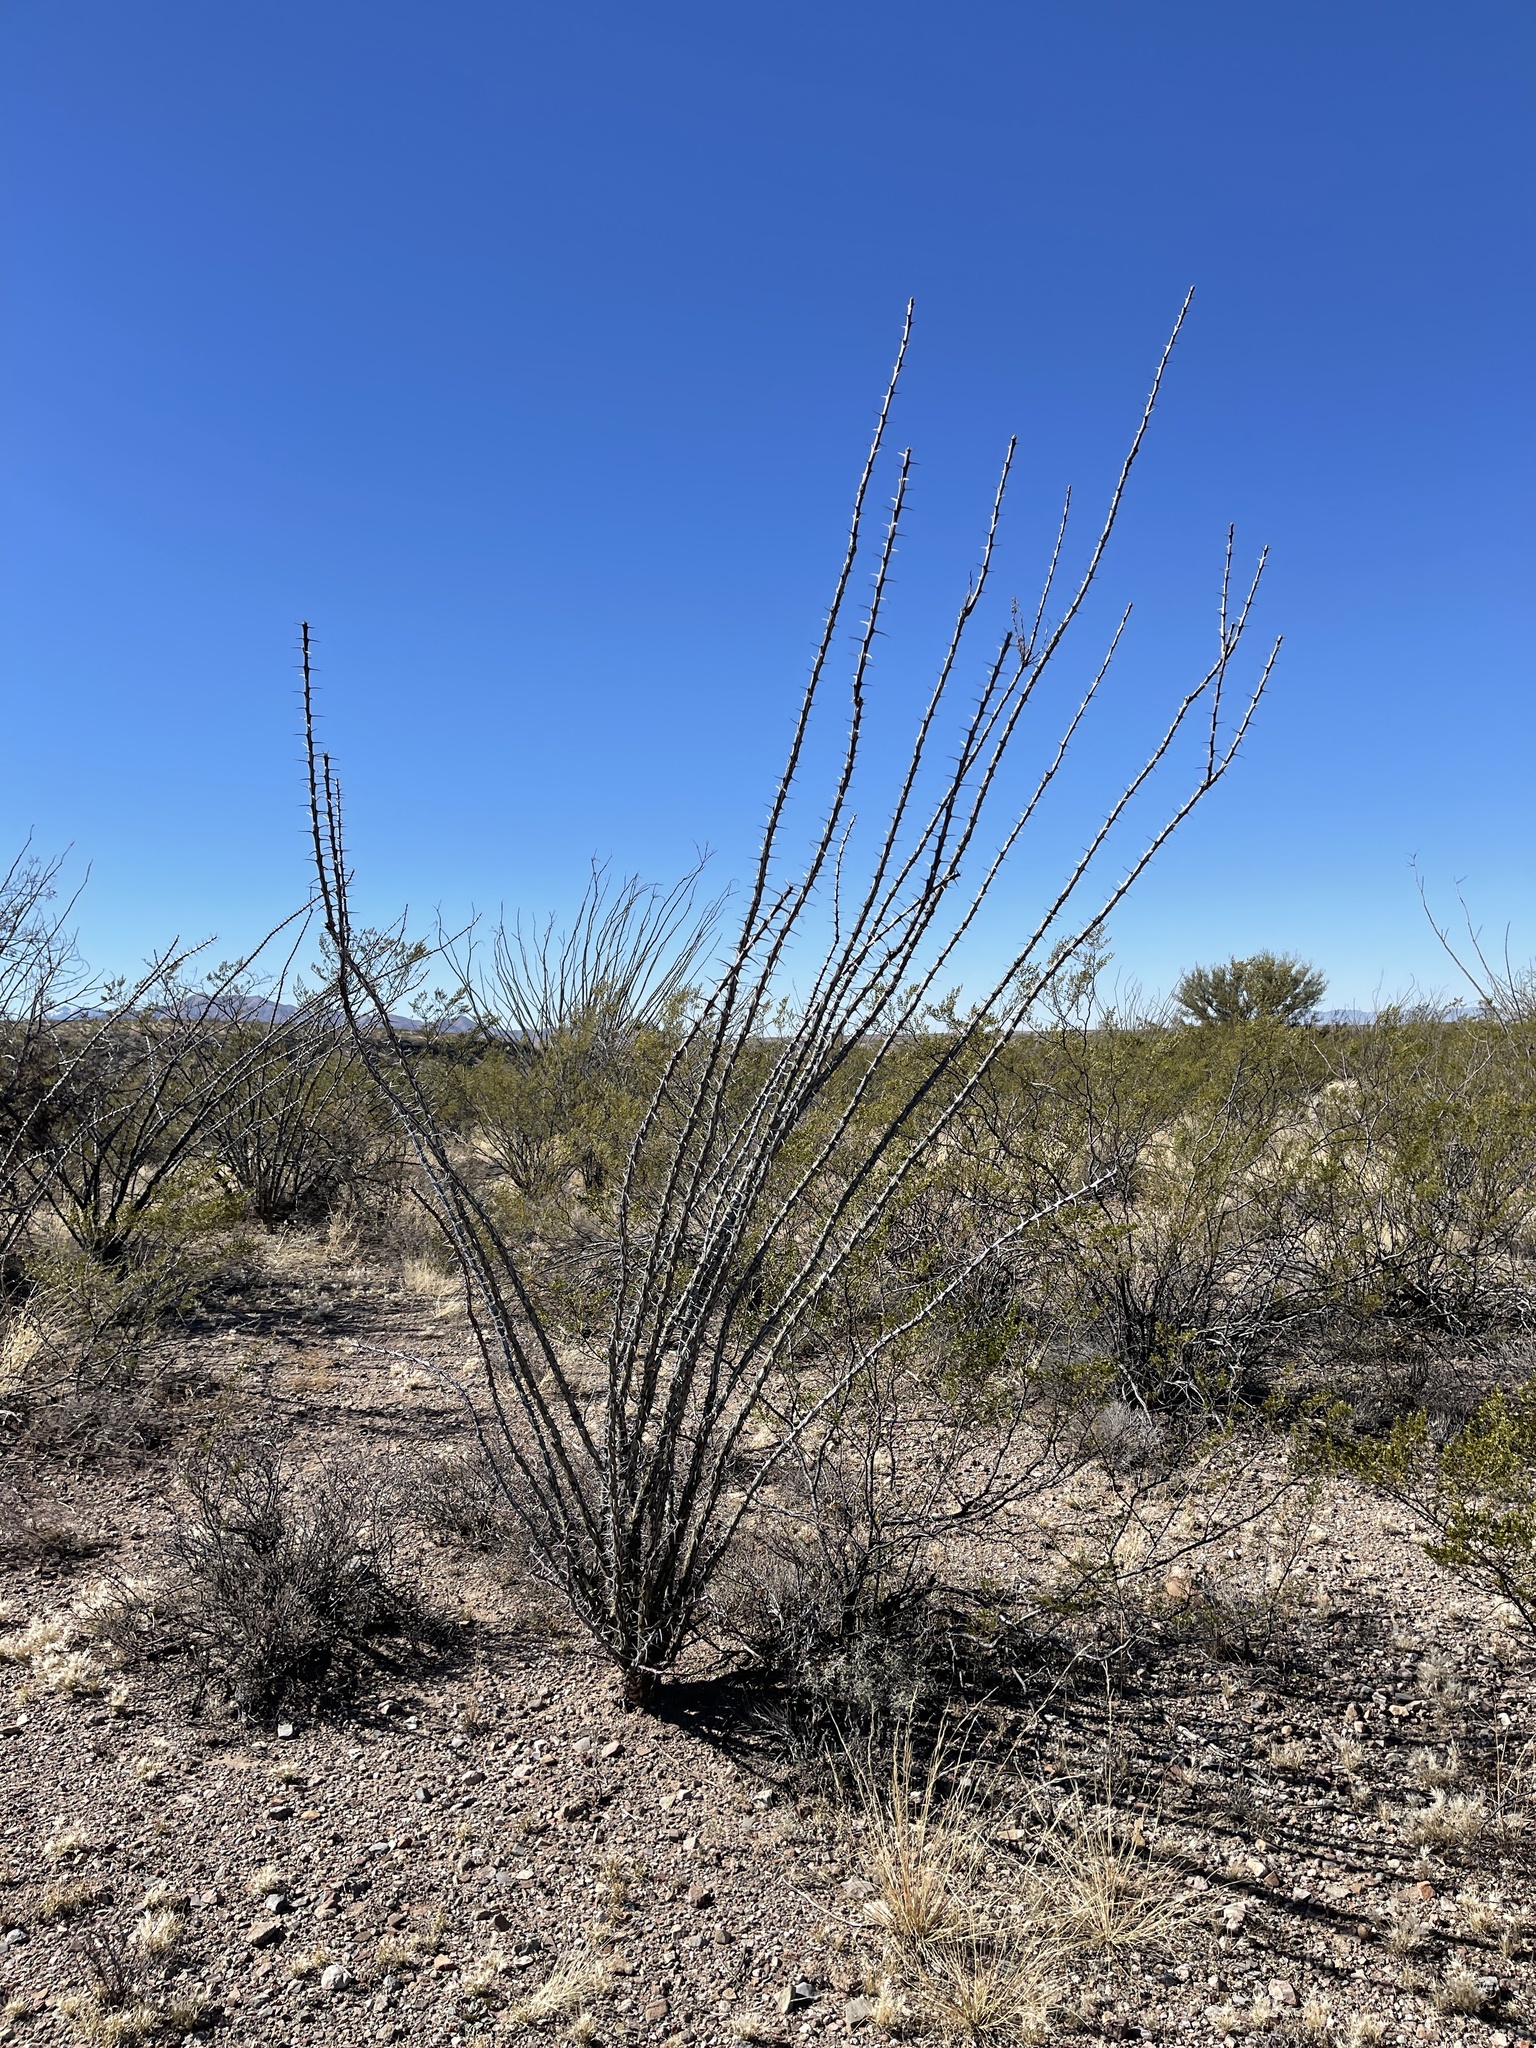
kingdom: Plantae
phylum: Tracheophyta
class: Magnoliopsida
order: Ericales
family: Fouquieriaceae
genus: Fouquieria
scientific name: Fouquieria splendens
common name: Vine-cactus
